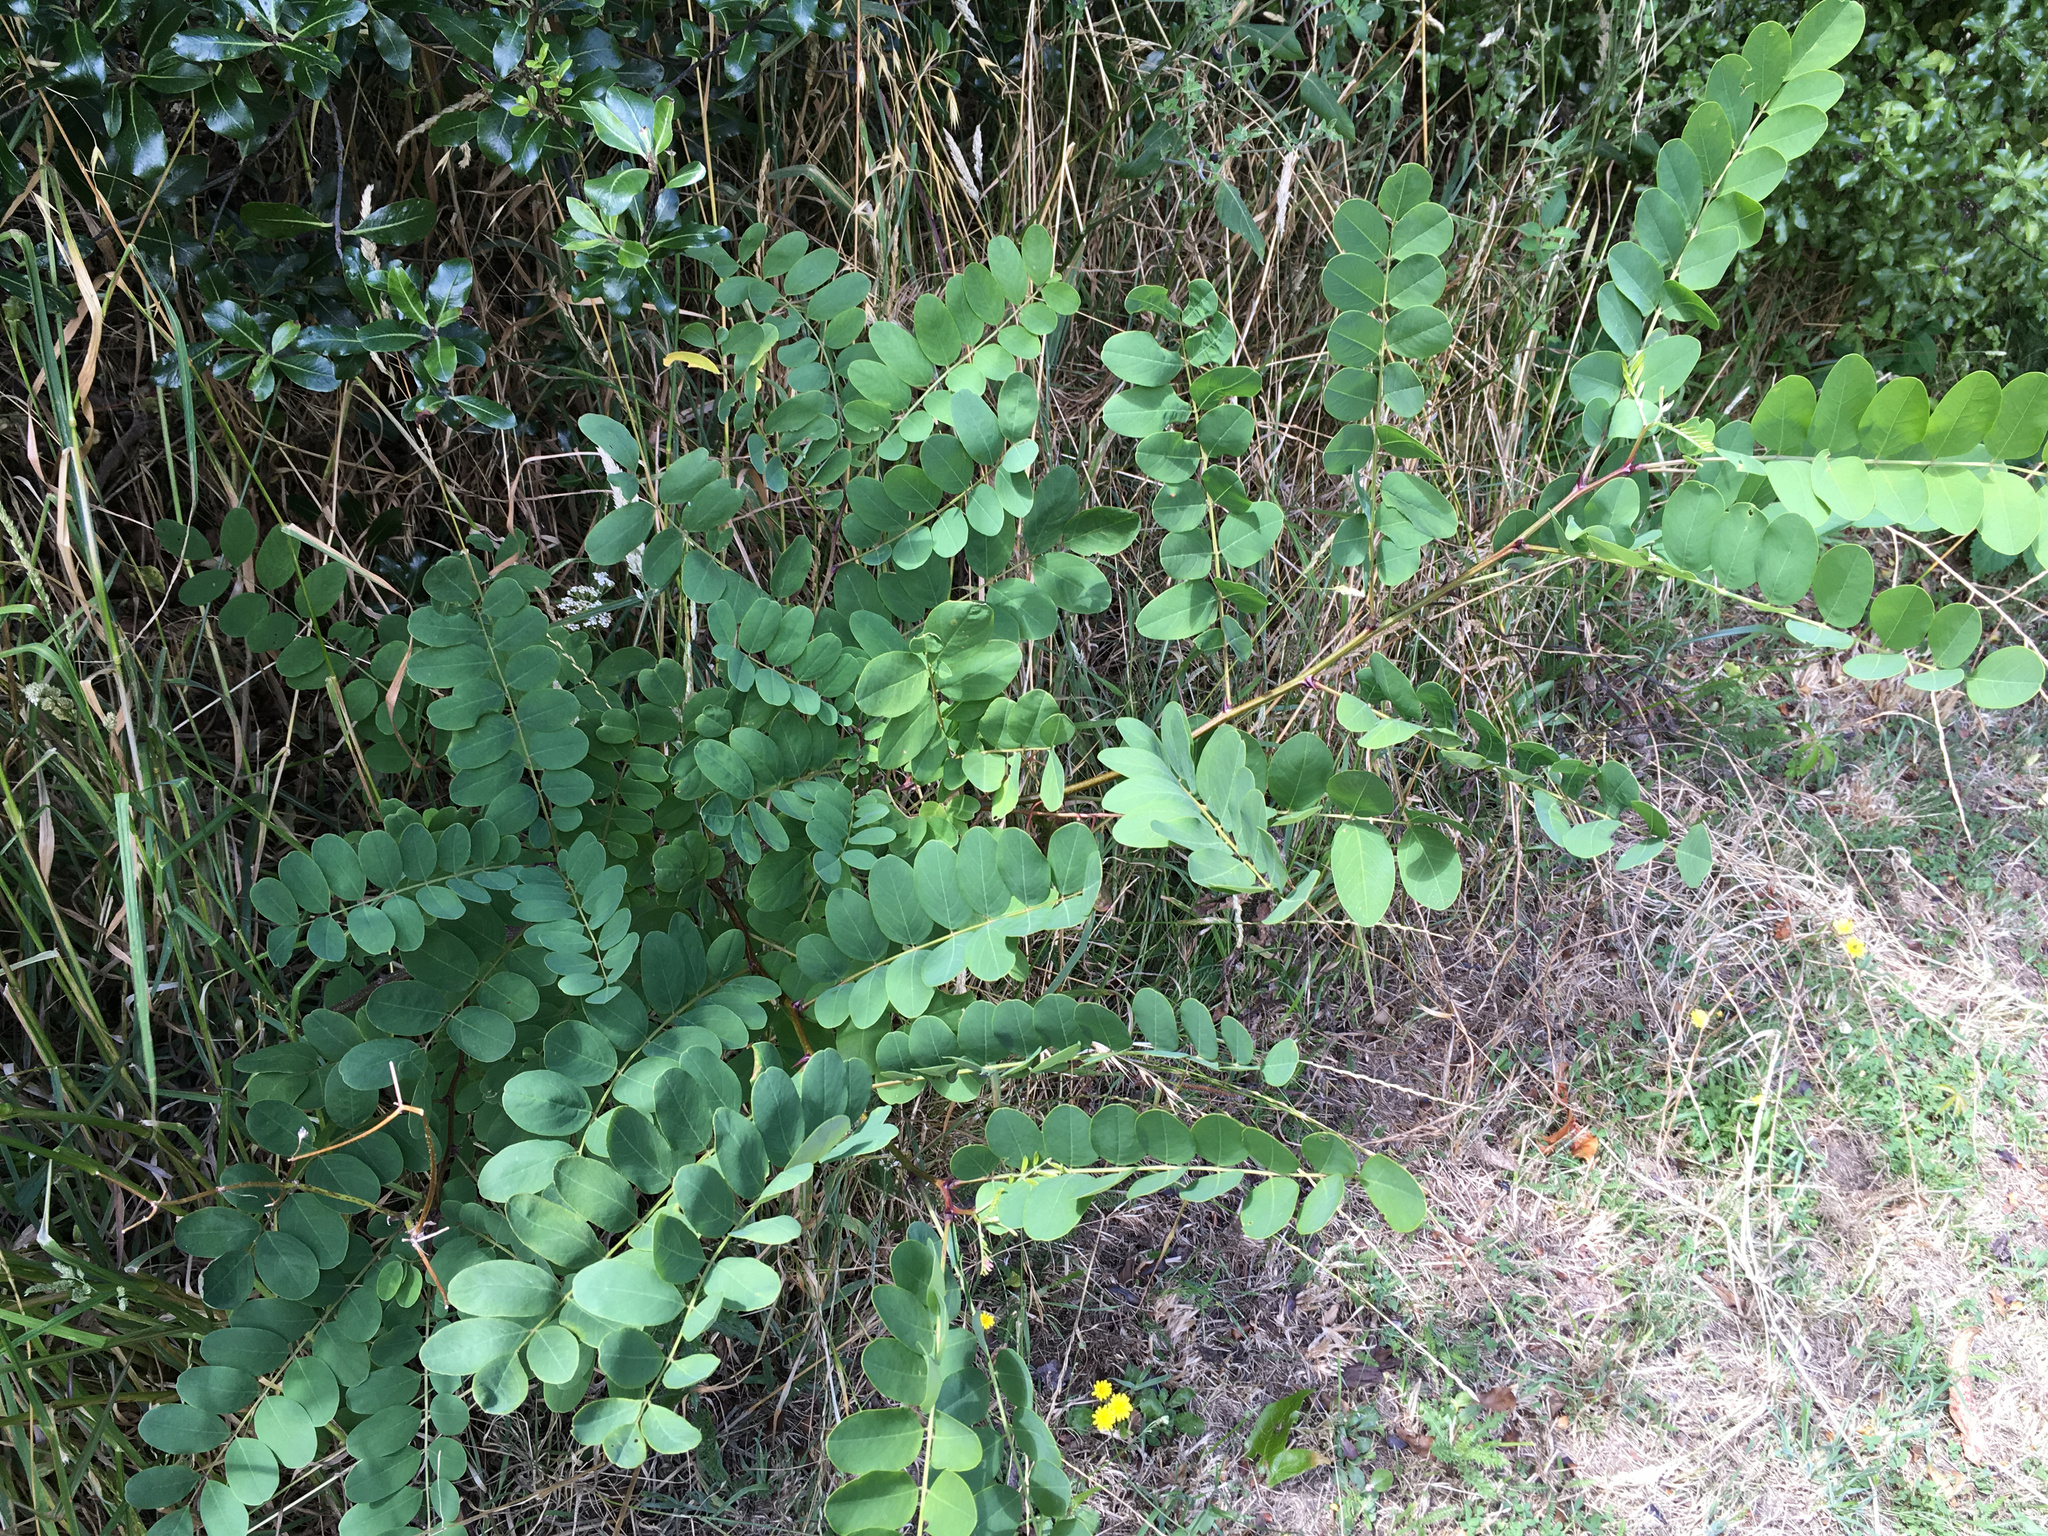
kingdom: Plantae
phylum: Tracheophyta
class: Magnoliopsida
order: Fabales
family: Fabaceae
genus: Robinia
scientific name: Robinia pseudoacacia
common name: Black locust
